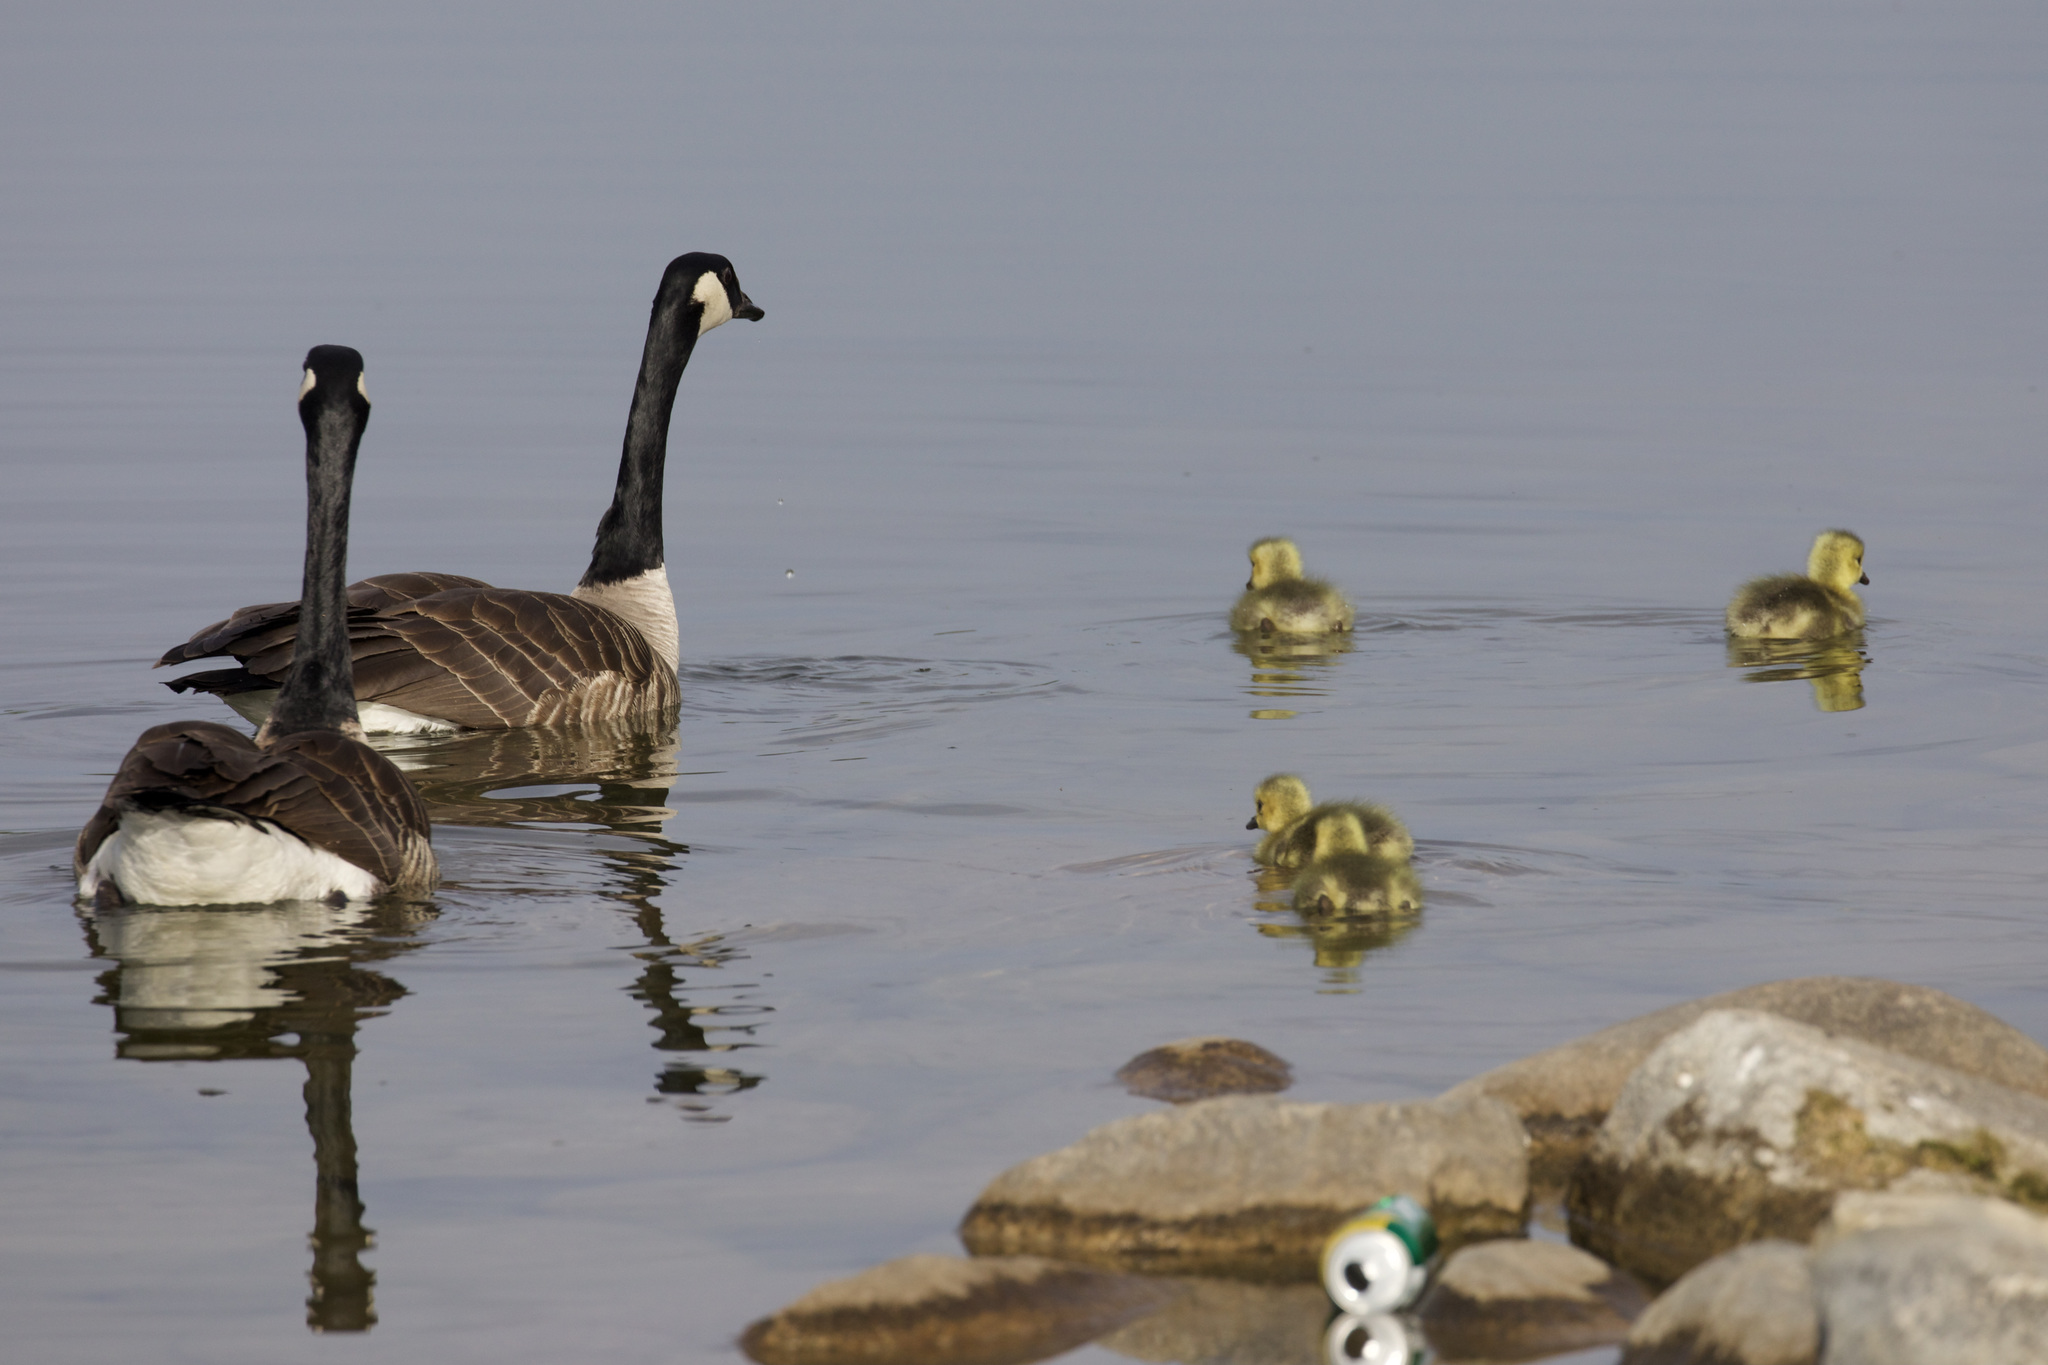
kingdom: Animalia
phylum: Chordata
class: Aves
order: Anseriformes
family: Anatidae
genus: Branta
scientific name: Branta canadensis
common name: Canada goose
